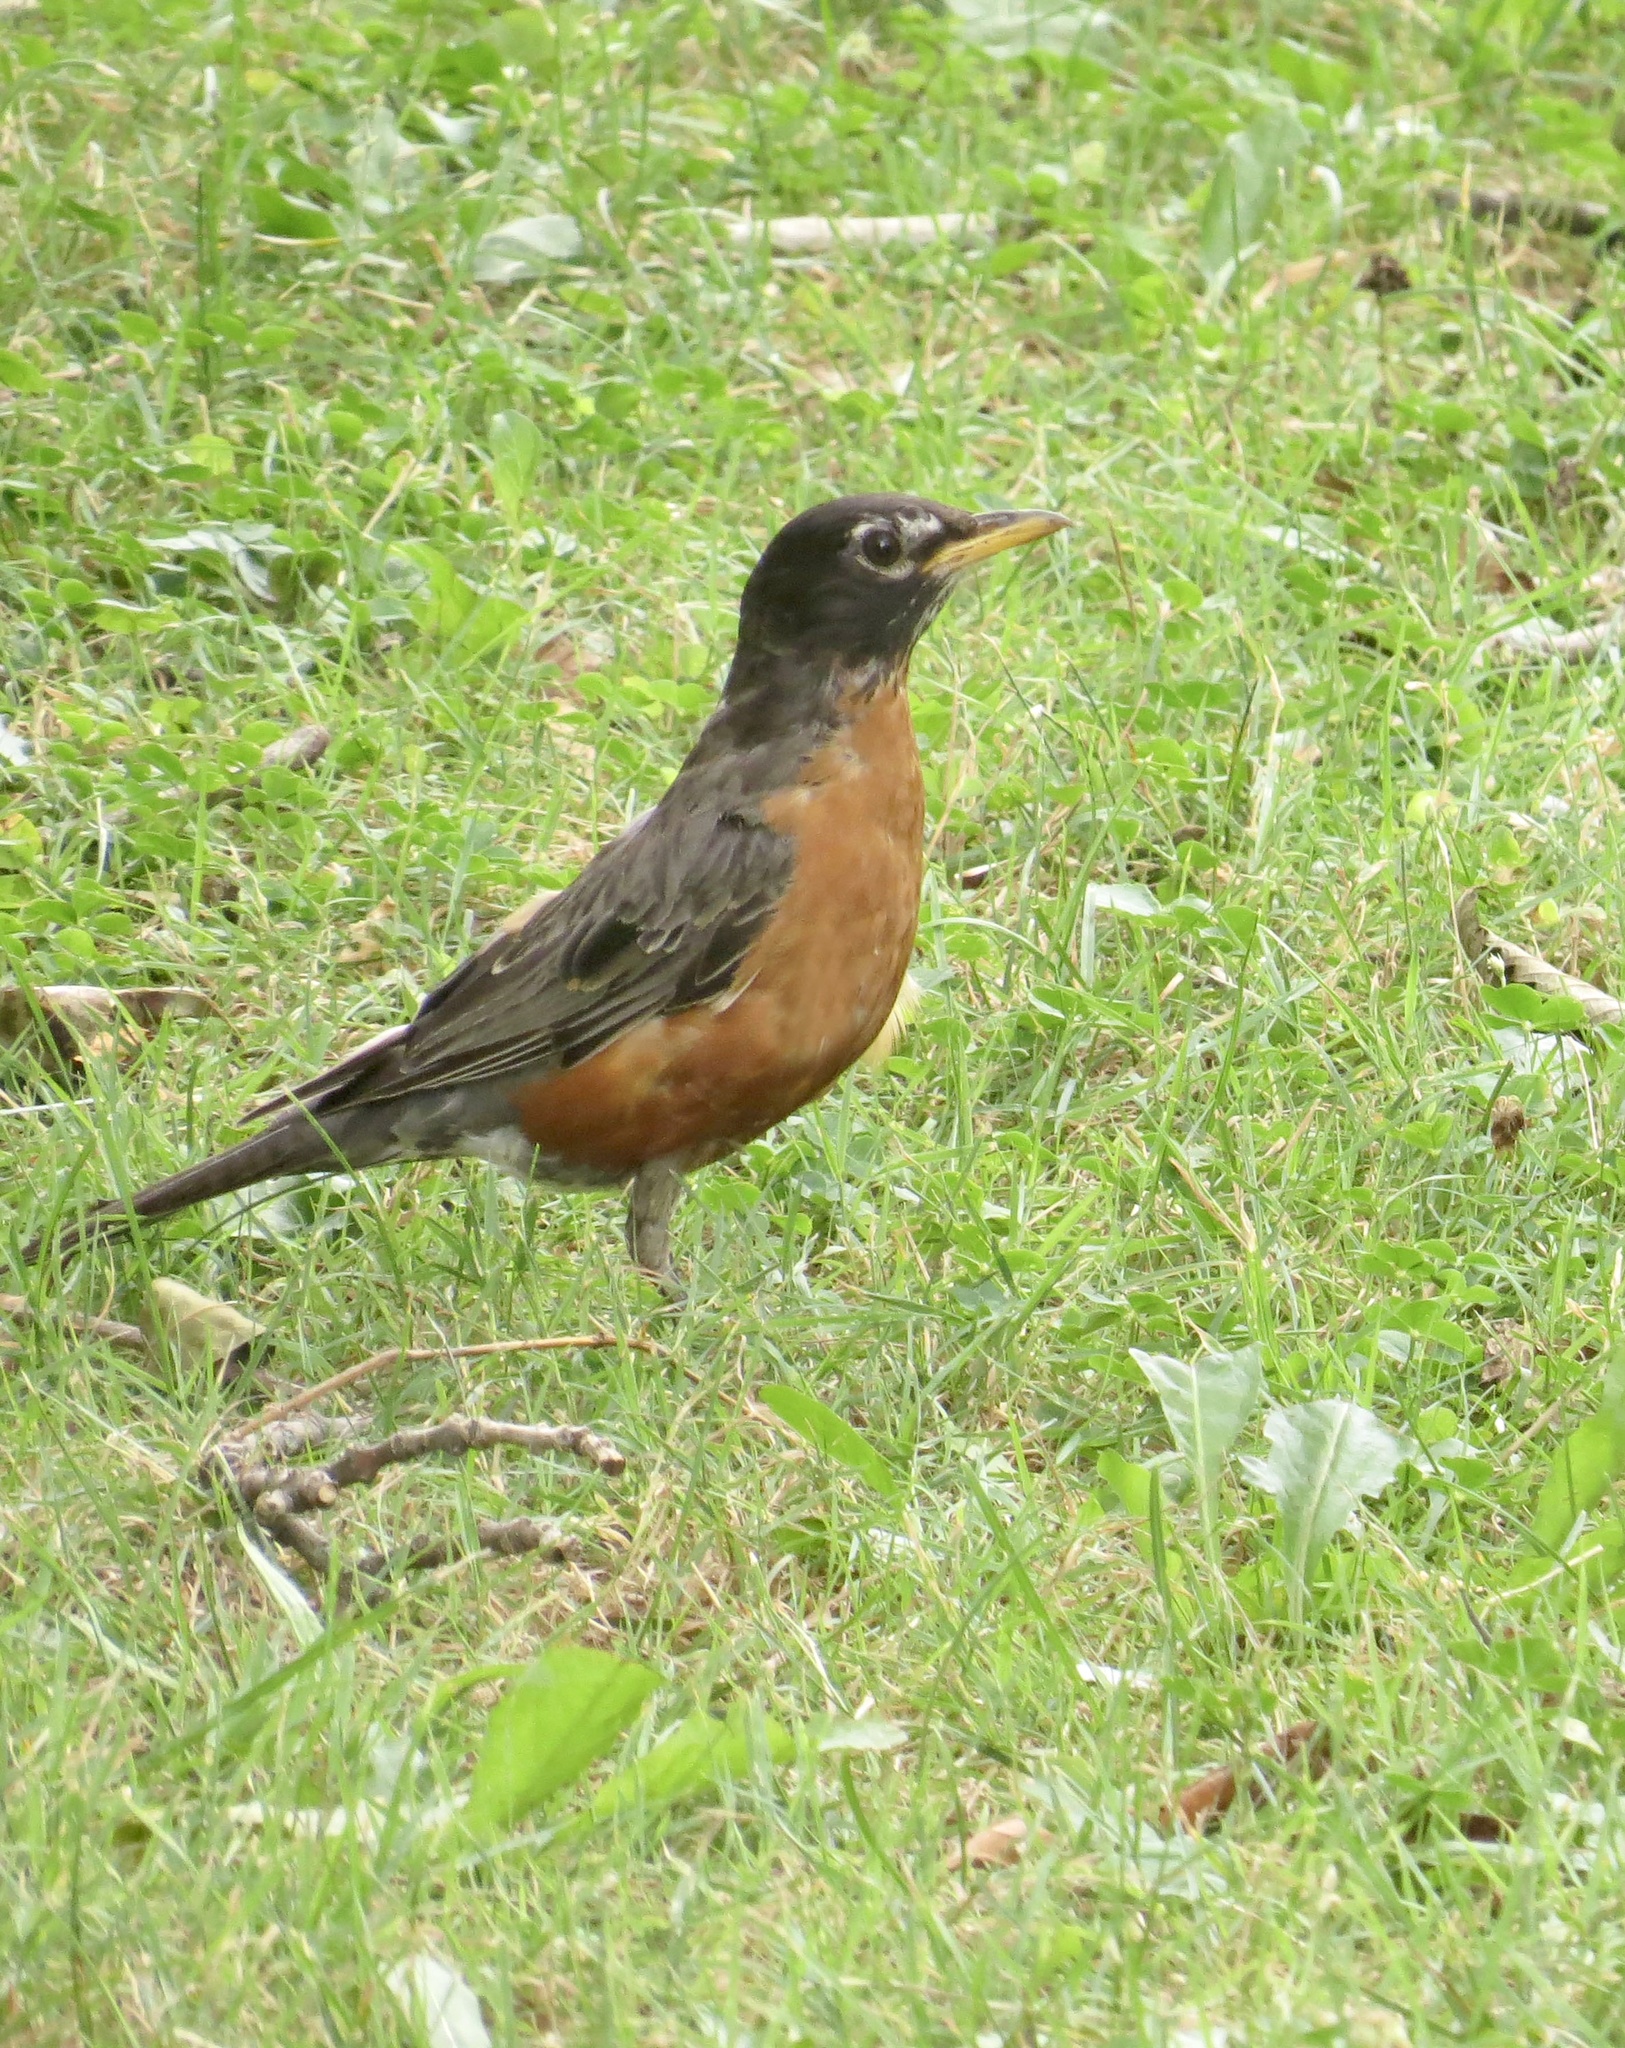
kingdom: Animalia
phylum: Chordata
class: Aves
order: Passeriformes
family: Turdidae
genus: Turdus
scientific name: Turdus migratorius
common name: American robin
